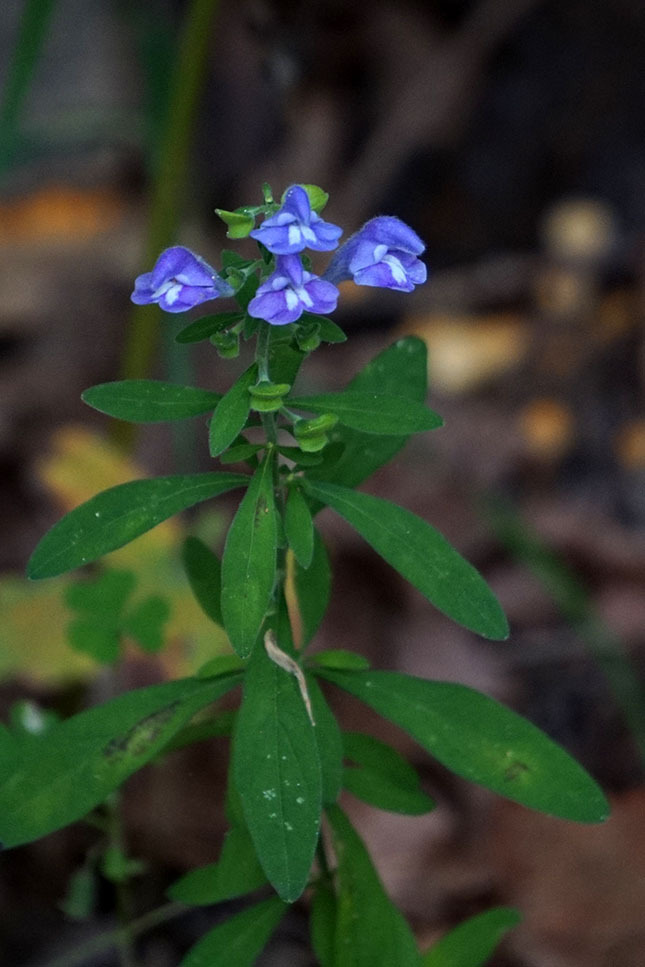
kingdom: Plantae
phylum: Tracheophyta
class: Magnoliopsida
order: Lamiales
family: Lamiaceae
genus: Scutellaria
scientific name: Scutellaria integrifolia
